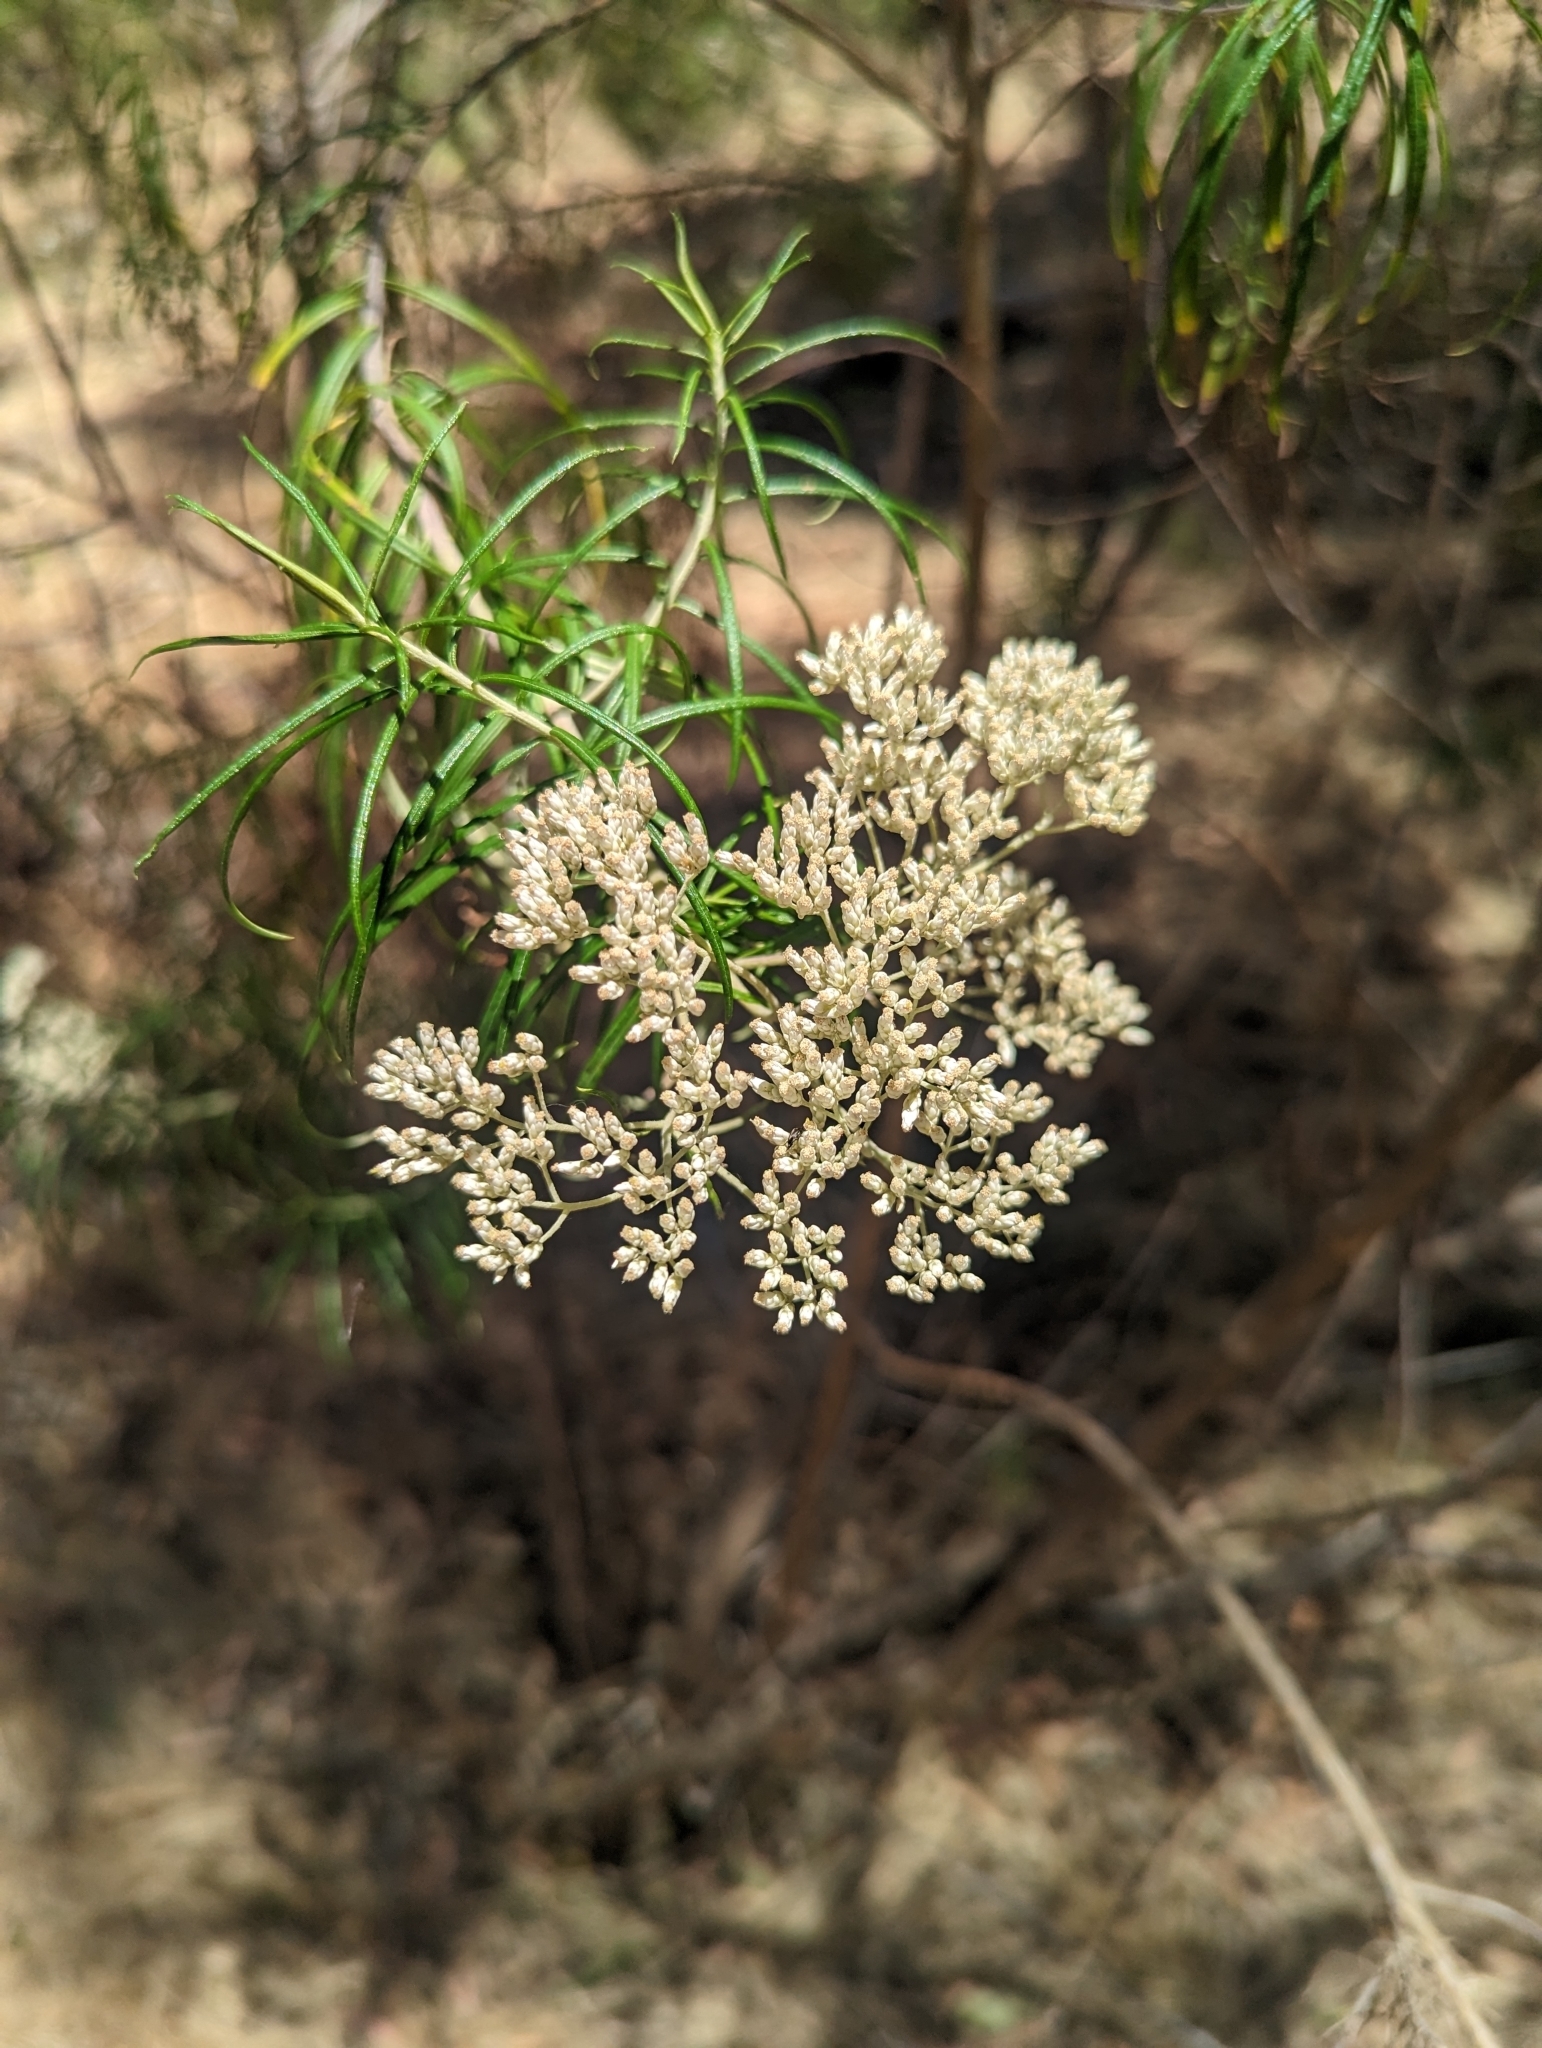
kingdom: Plantae
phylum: Tracheophyta
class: Magnoliopsida
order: Asterales
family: Asteraceae
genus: Cassinia
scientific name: Cassinia longifolia
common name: Longleaf-dogwood
